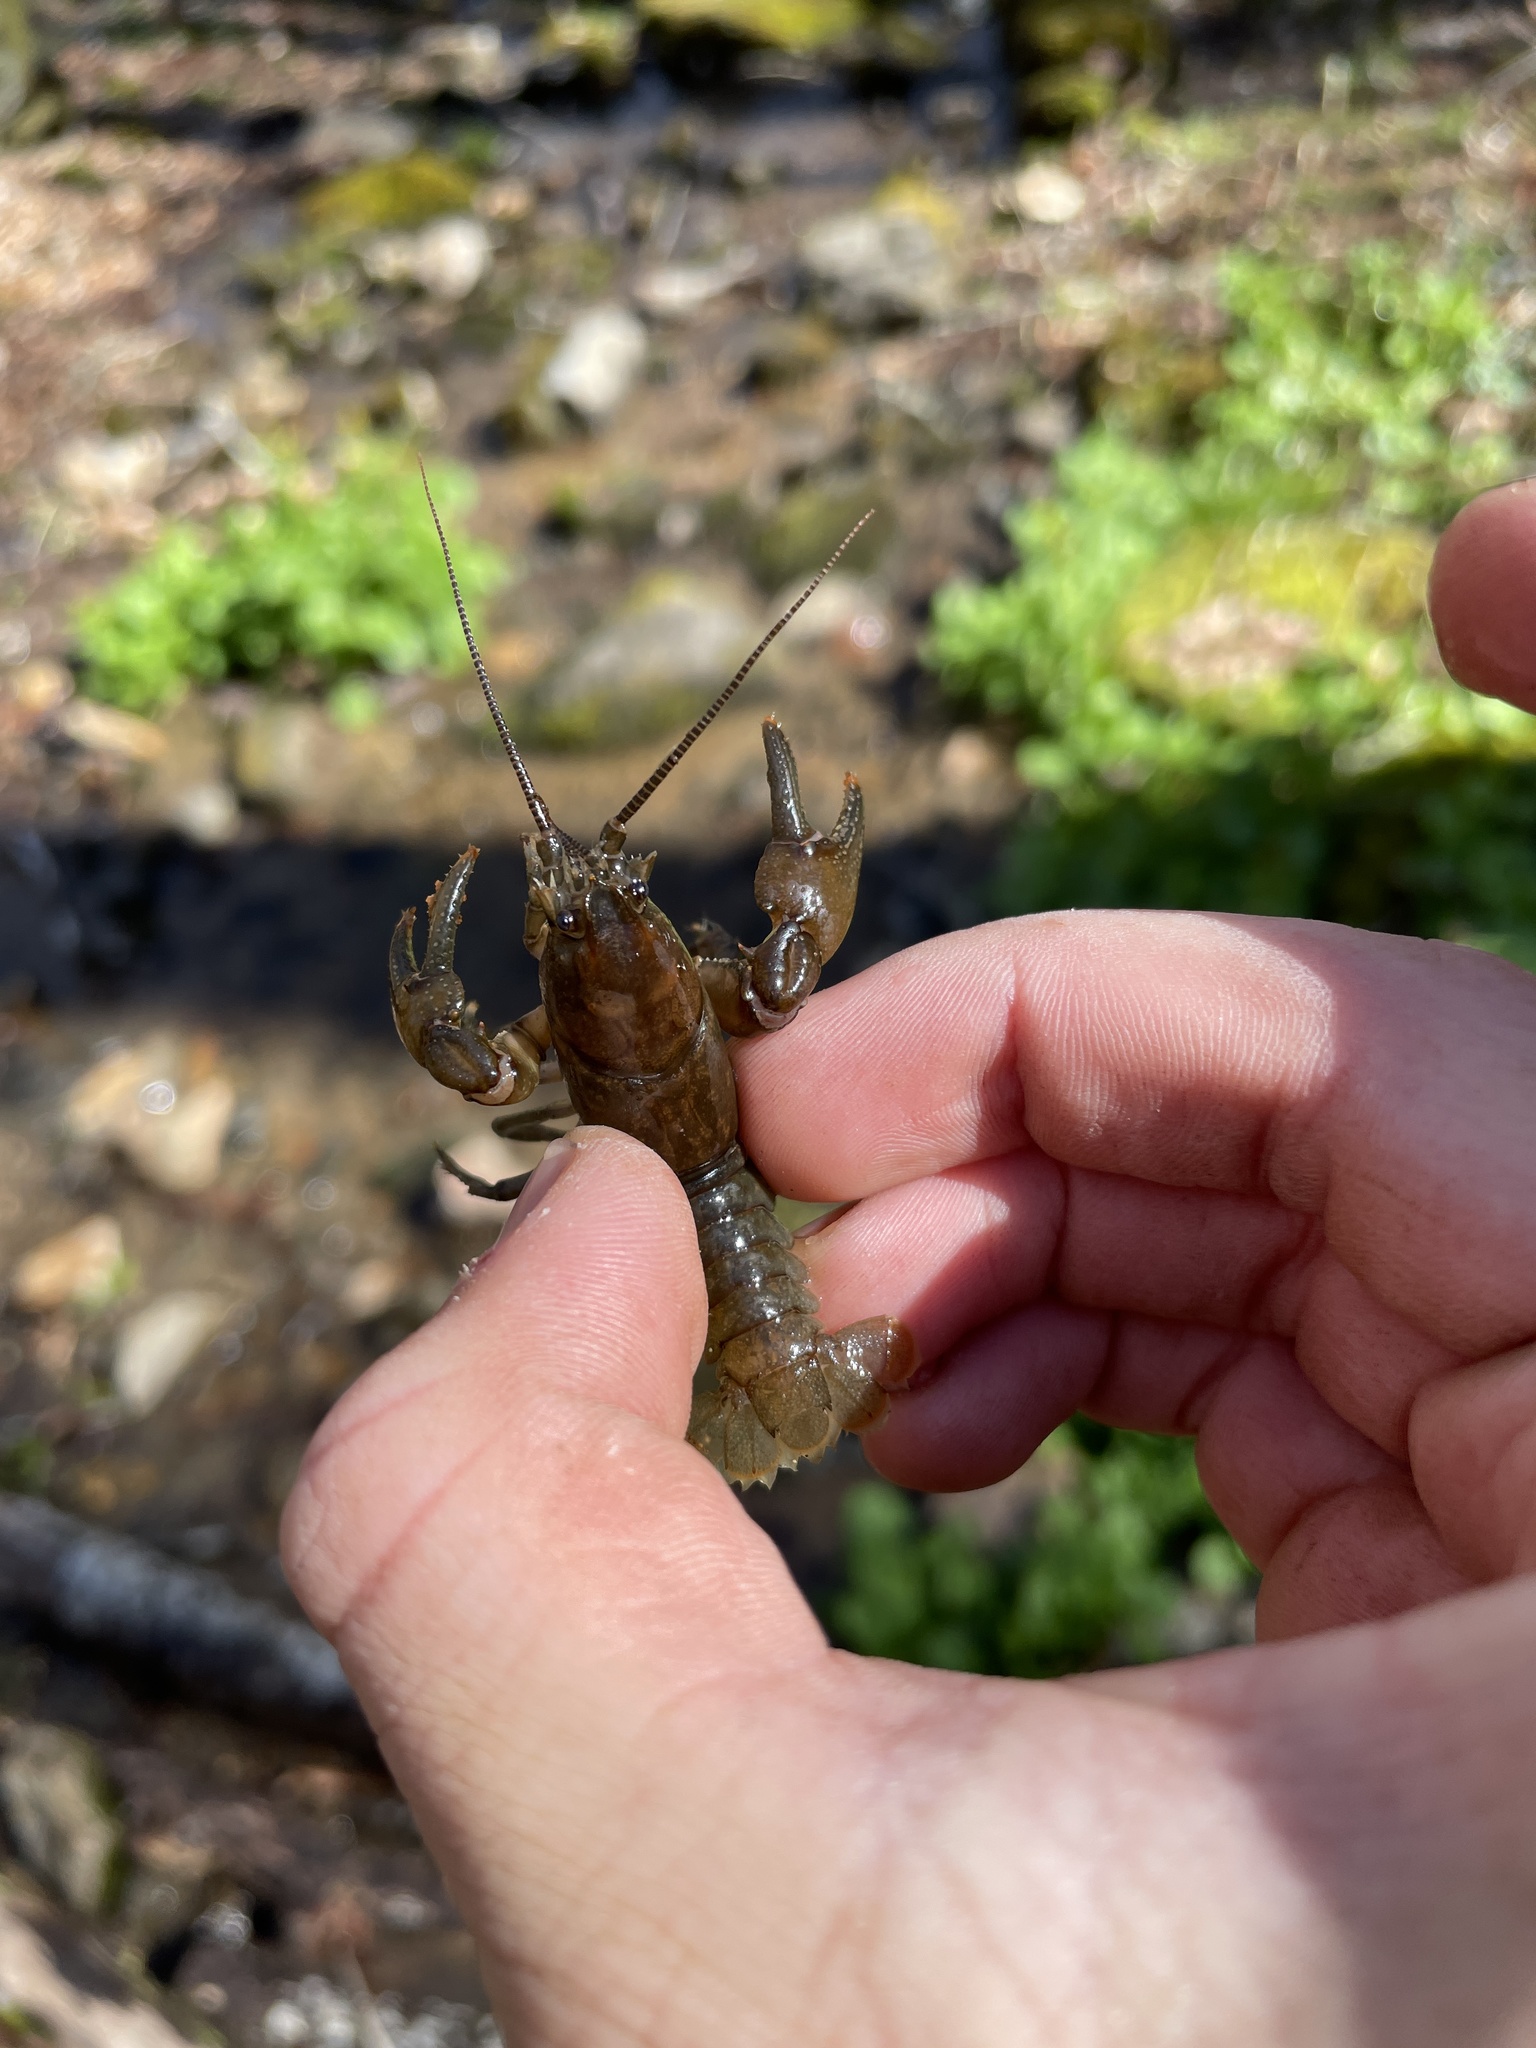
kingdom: Animalia
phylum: Arthropoda
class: Malacostraca
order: Decapoda
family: Cambaridae
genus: Cambarus
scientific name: Cambarus bartonii
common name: Appalachian brook crayfish
